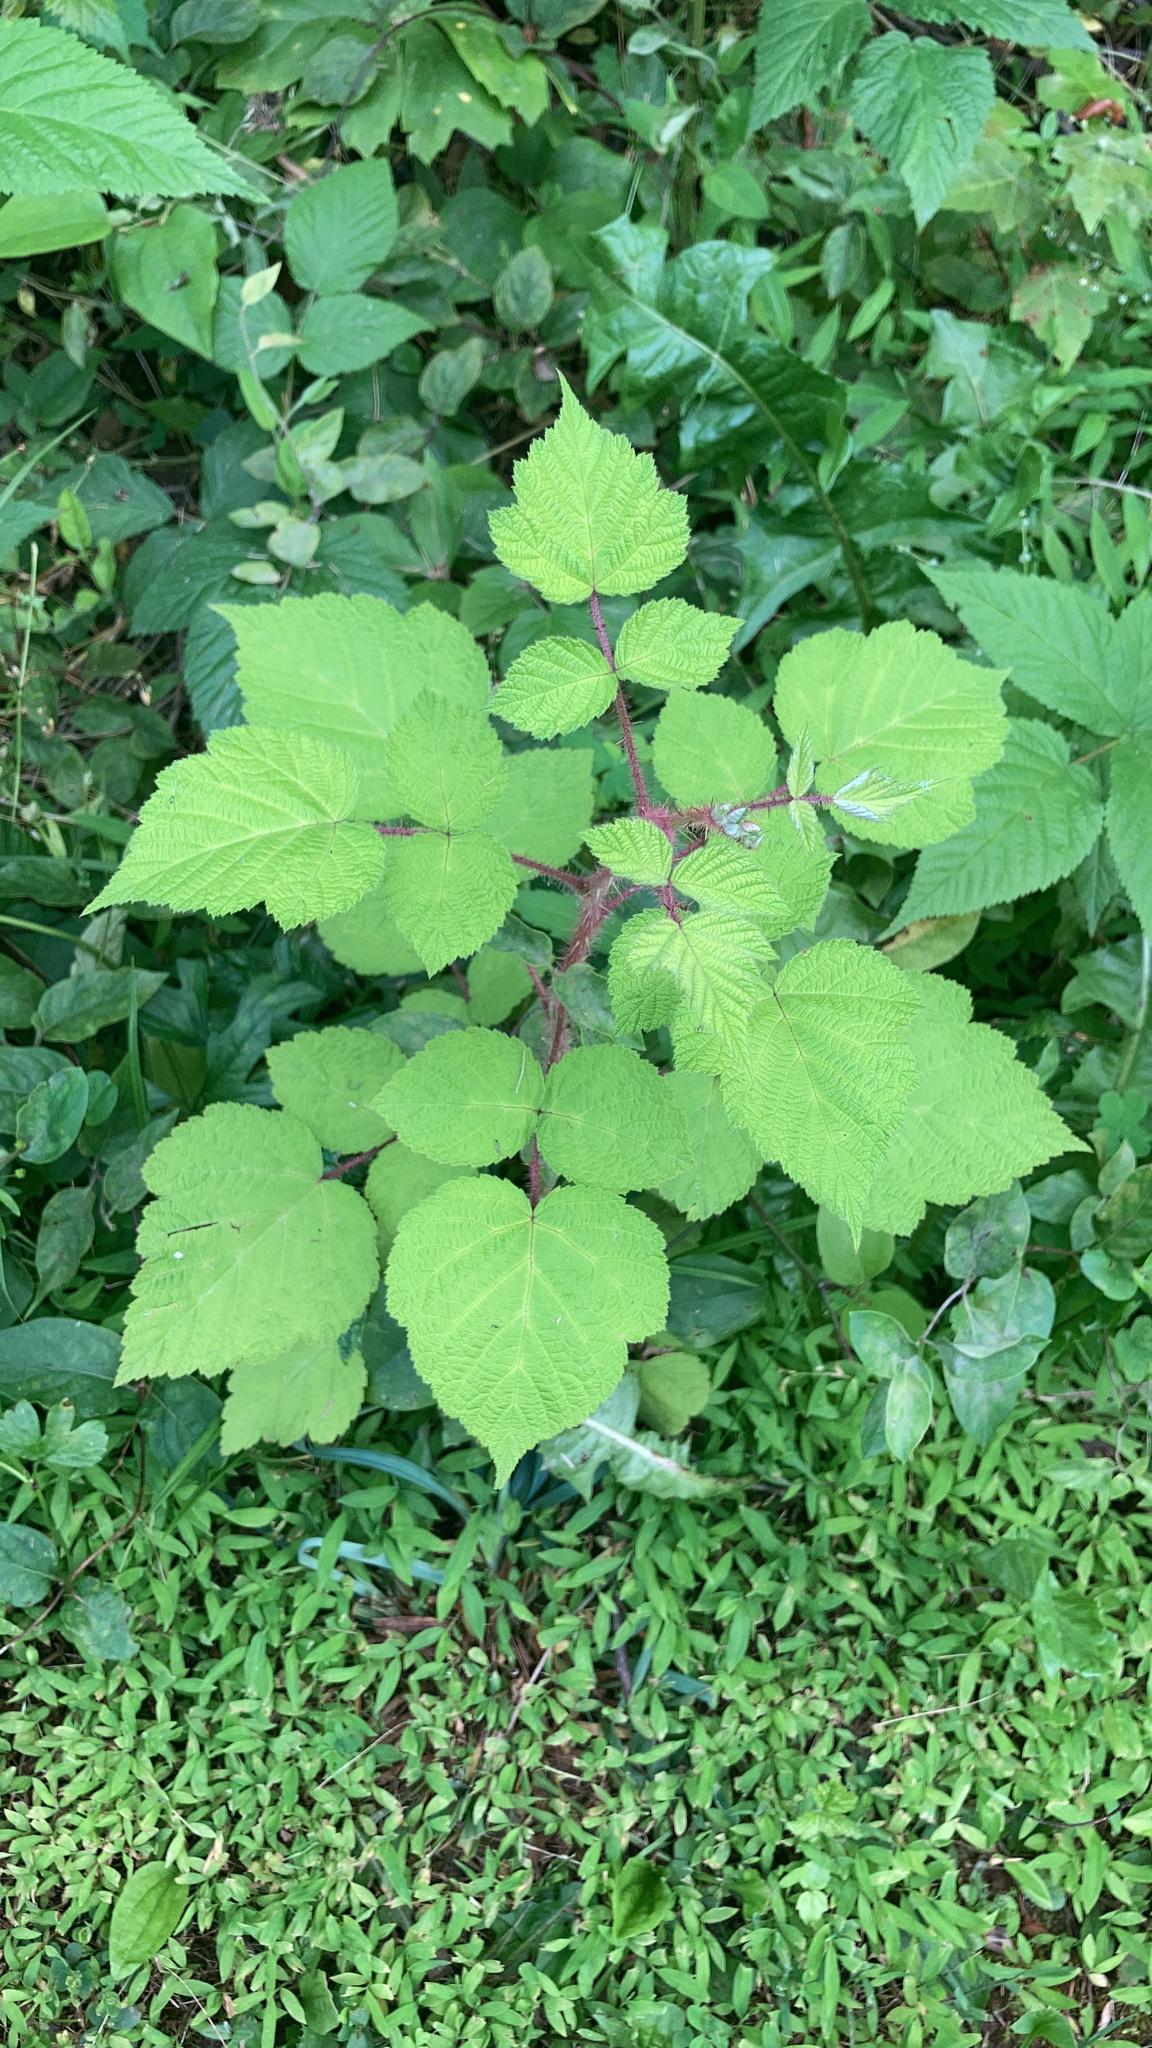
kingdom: Plantae
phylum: Tracheophyta
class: Magnoliopsida
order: Rosales
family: Rosaceae
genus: Rubus
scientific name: Rubus phoenicolasius
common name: Japanese wineberry
